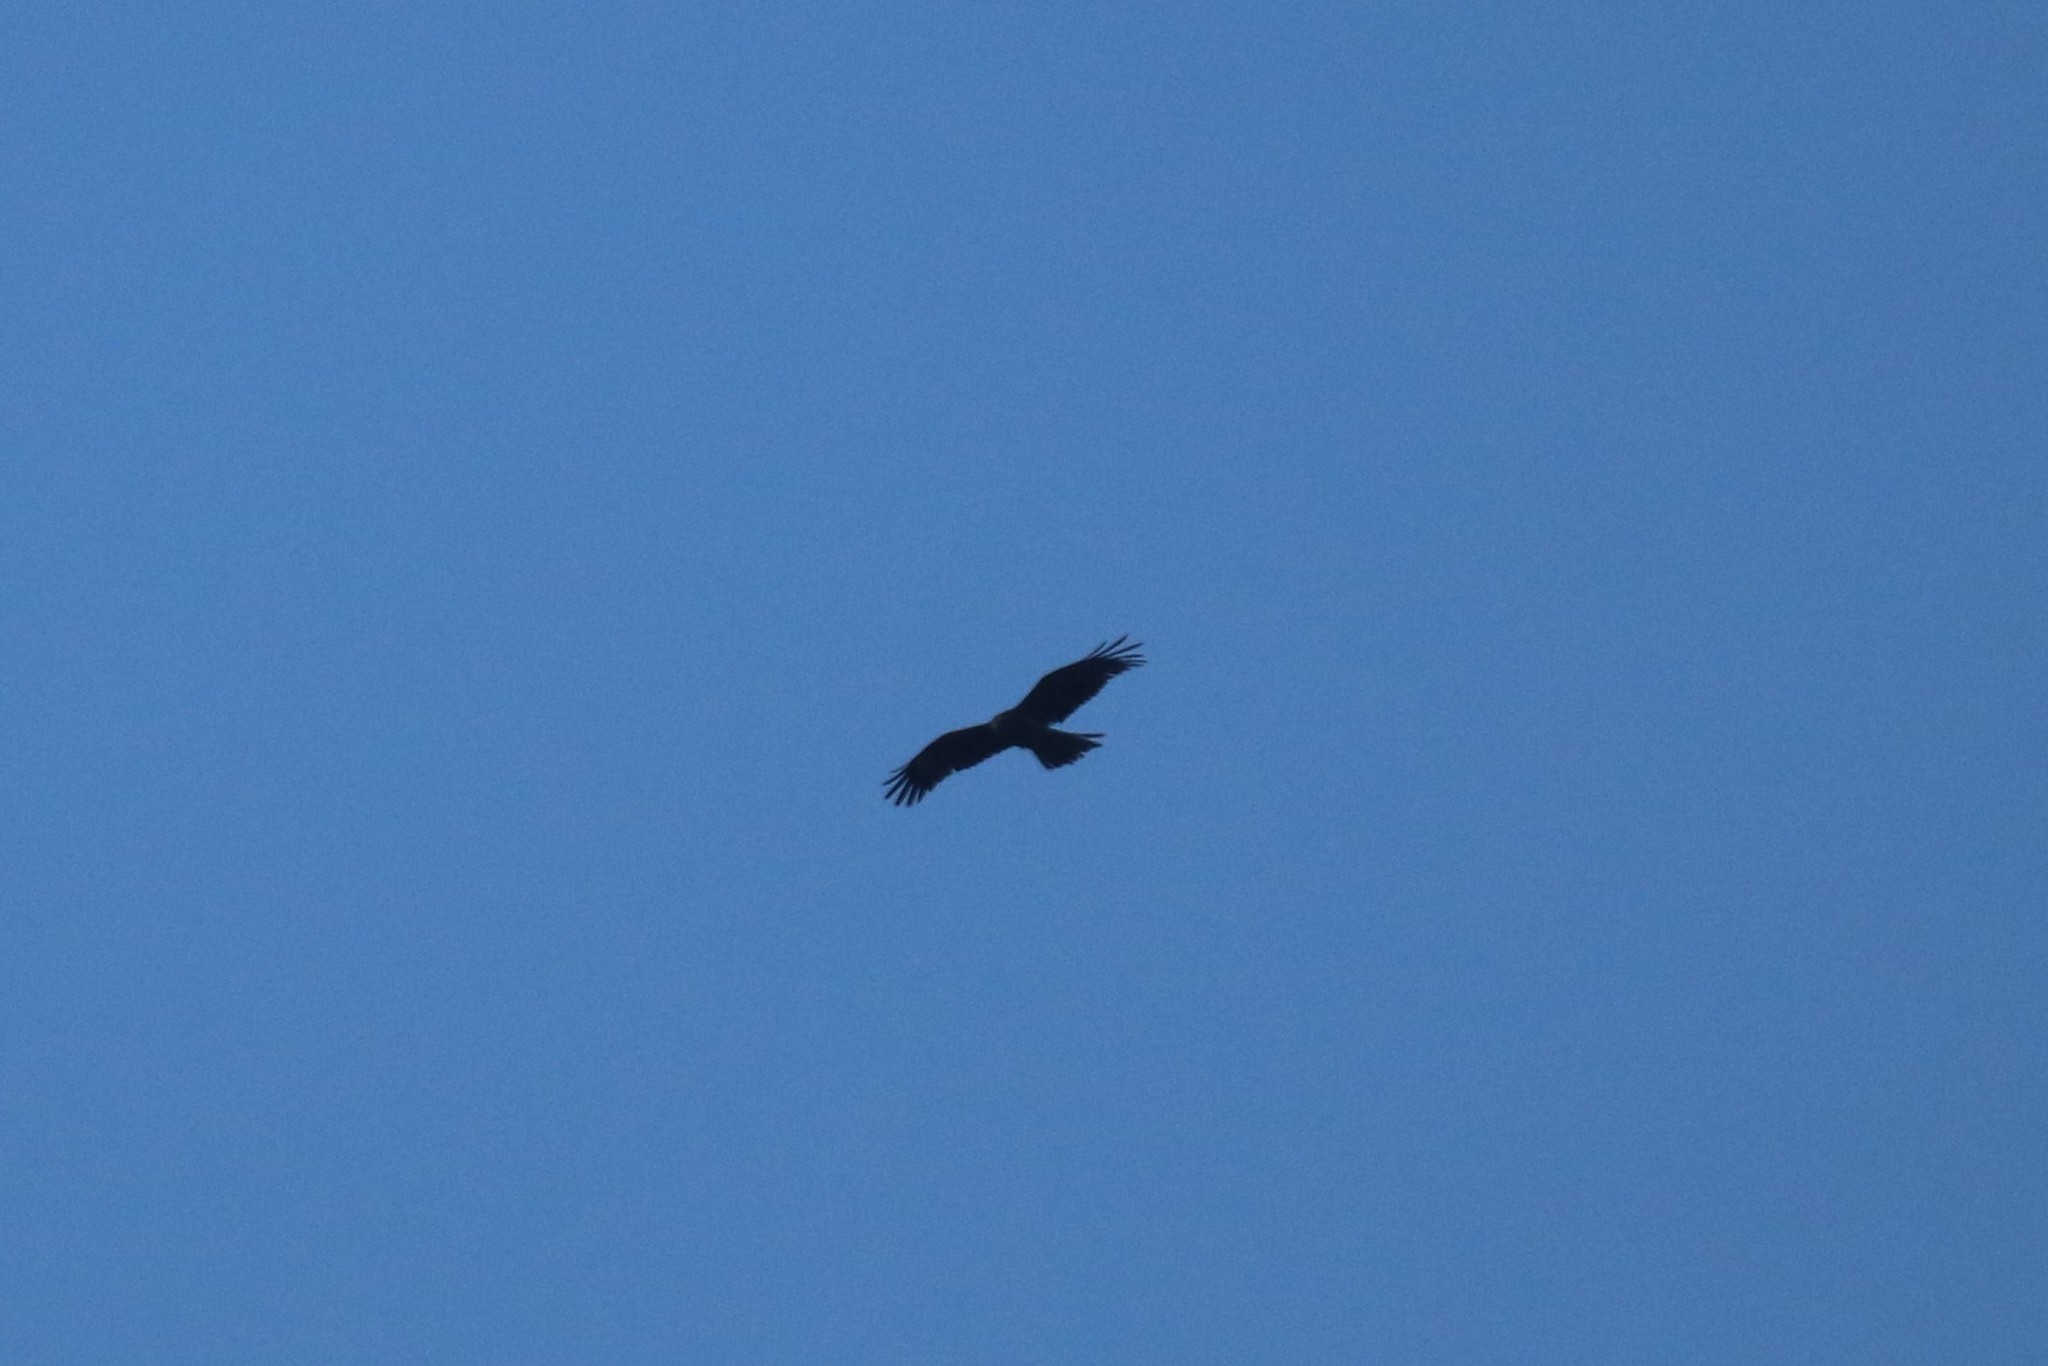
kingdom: Animalia
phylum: Chordata
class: Aves
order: Accipitriformes
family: Accipitridae
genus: Milvus
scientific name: Milvus migrans
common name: Black kite
